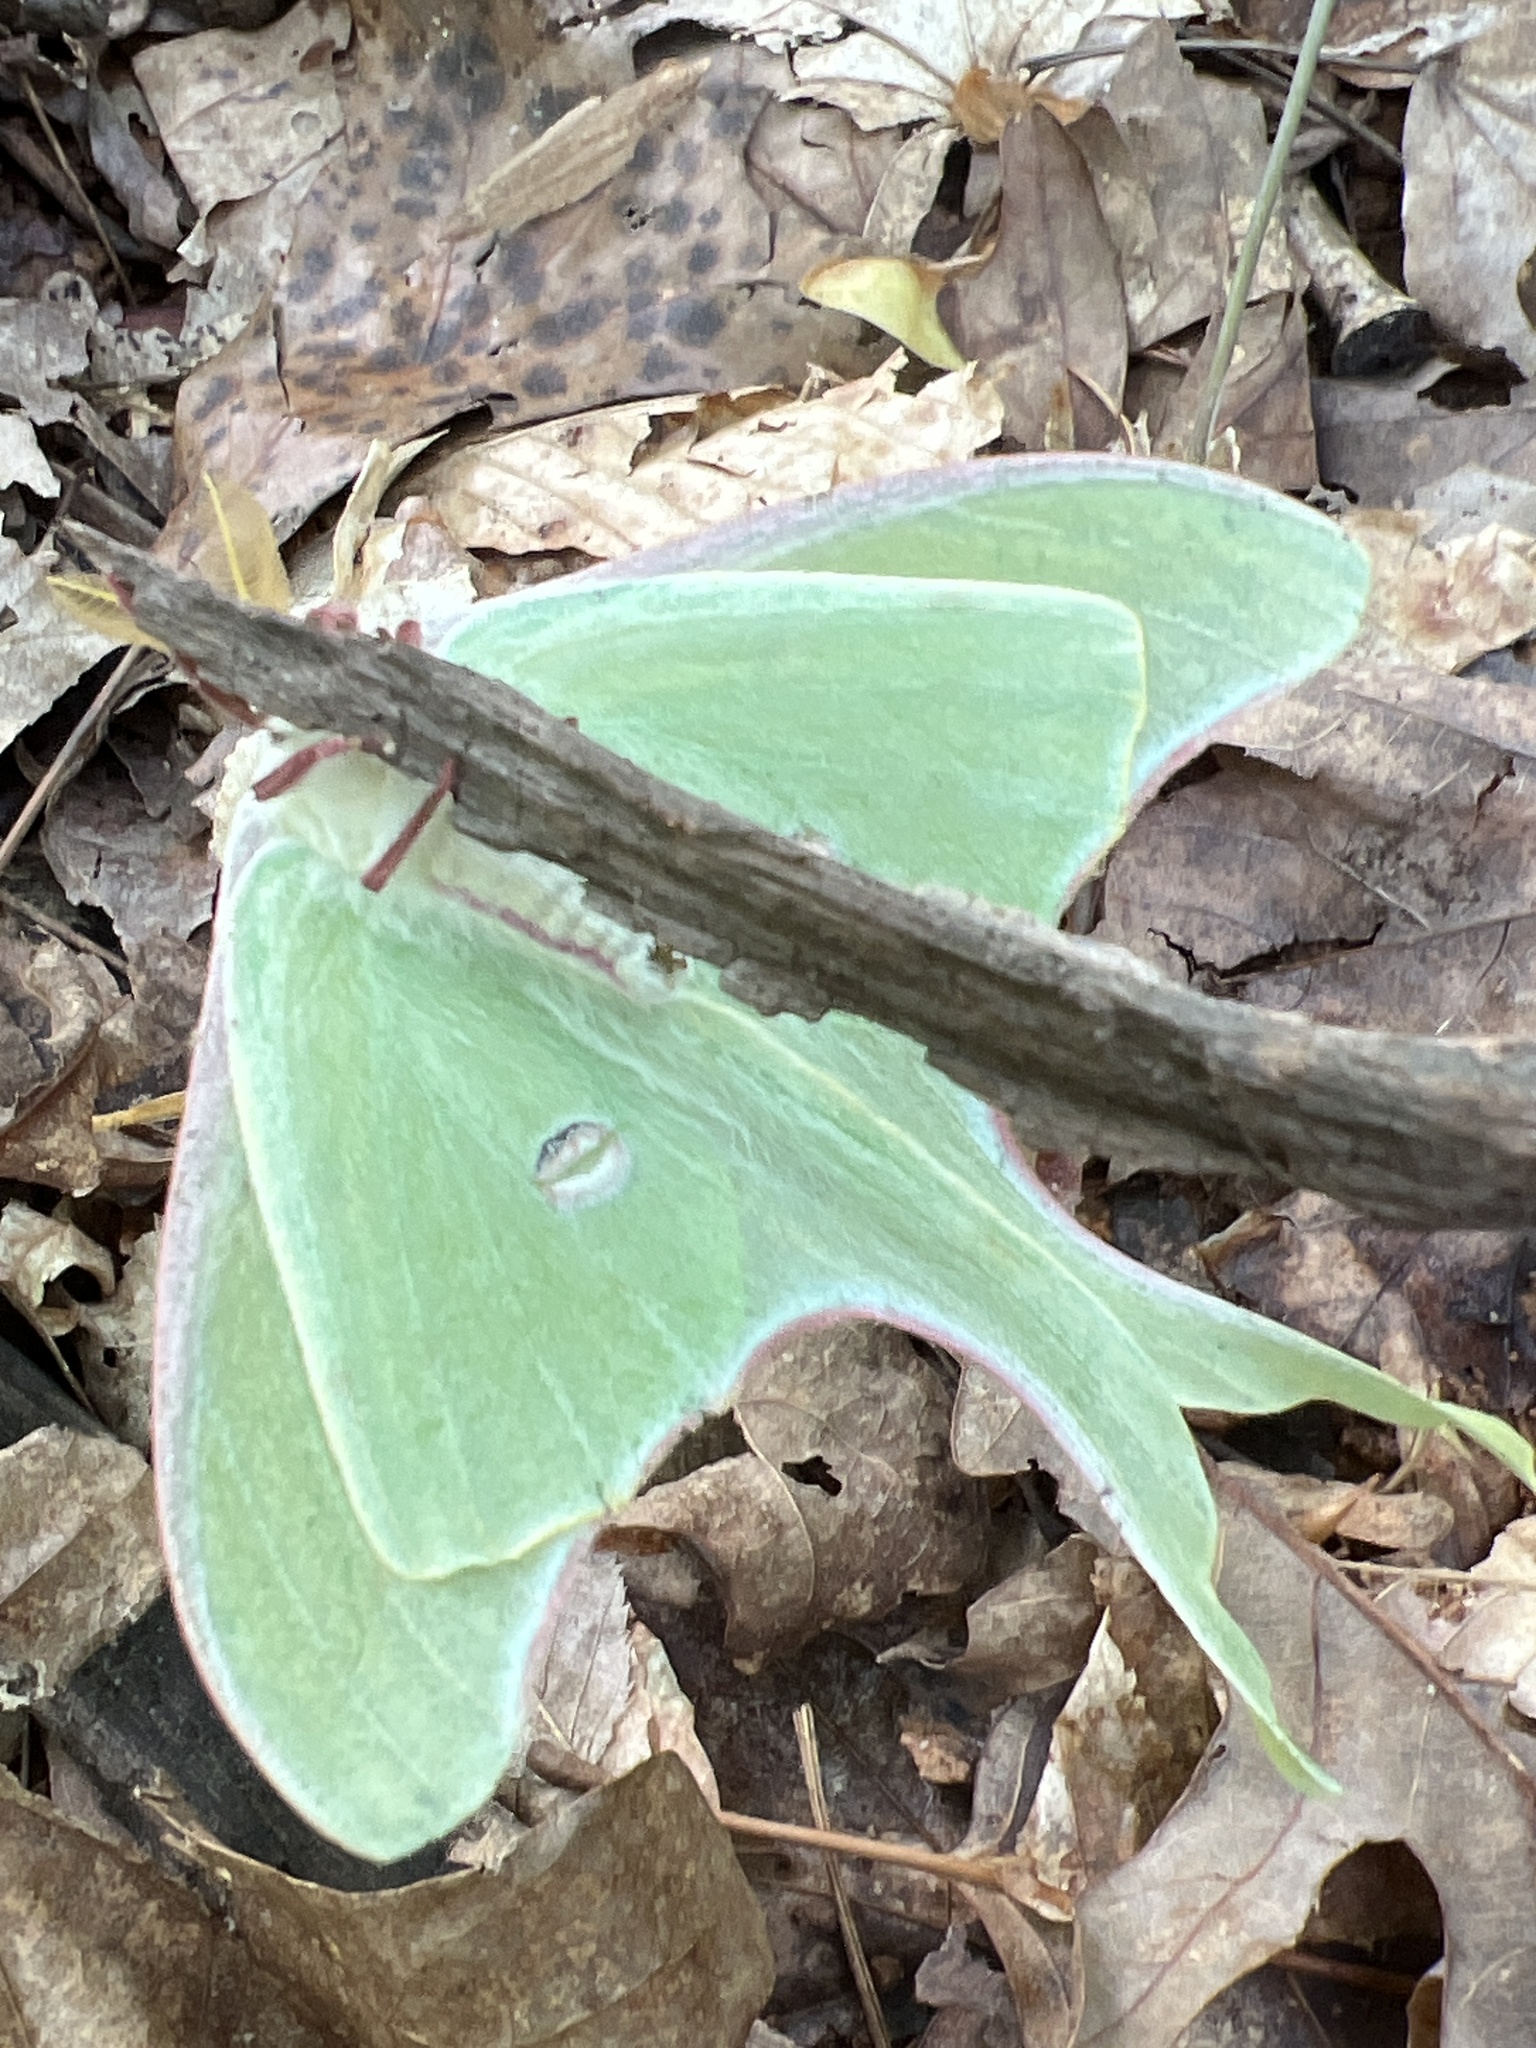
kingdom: Animalia
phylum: Arthropoda
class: Insecta
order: Lepidoptera
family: Saturniidae
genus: Actias
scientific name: Actias luna
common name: Luna moth
